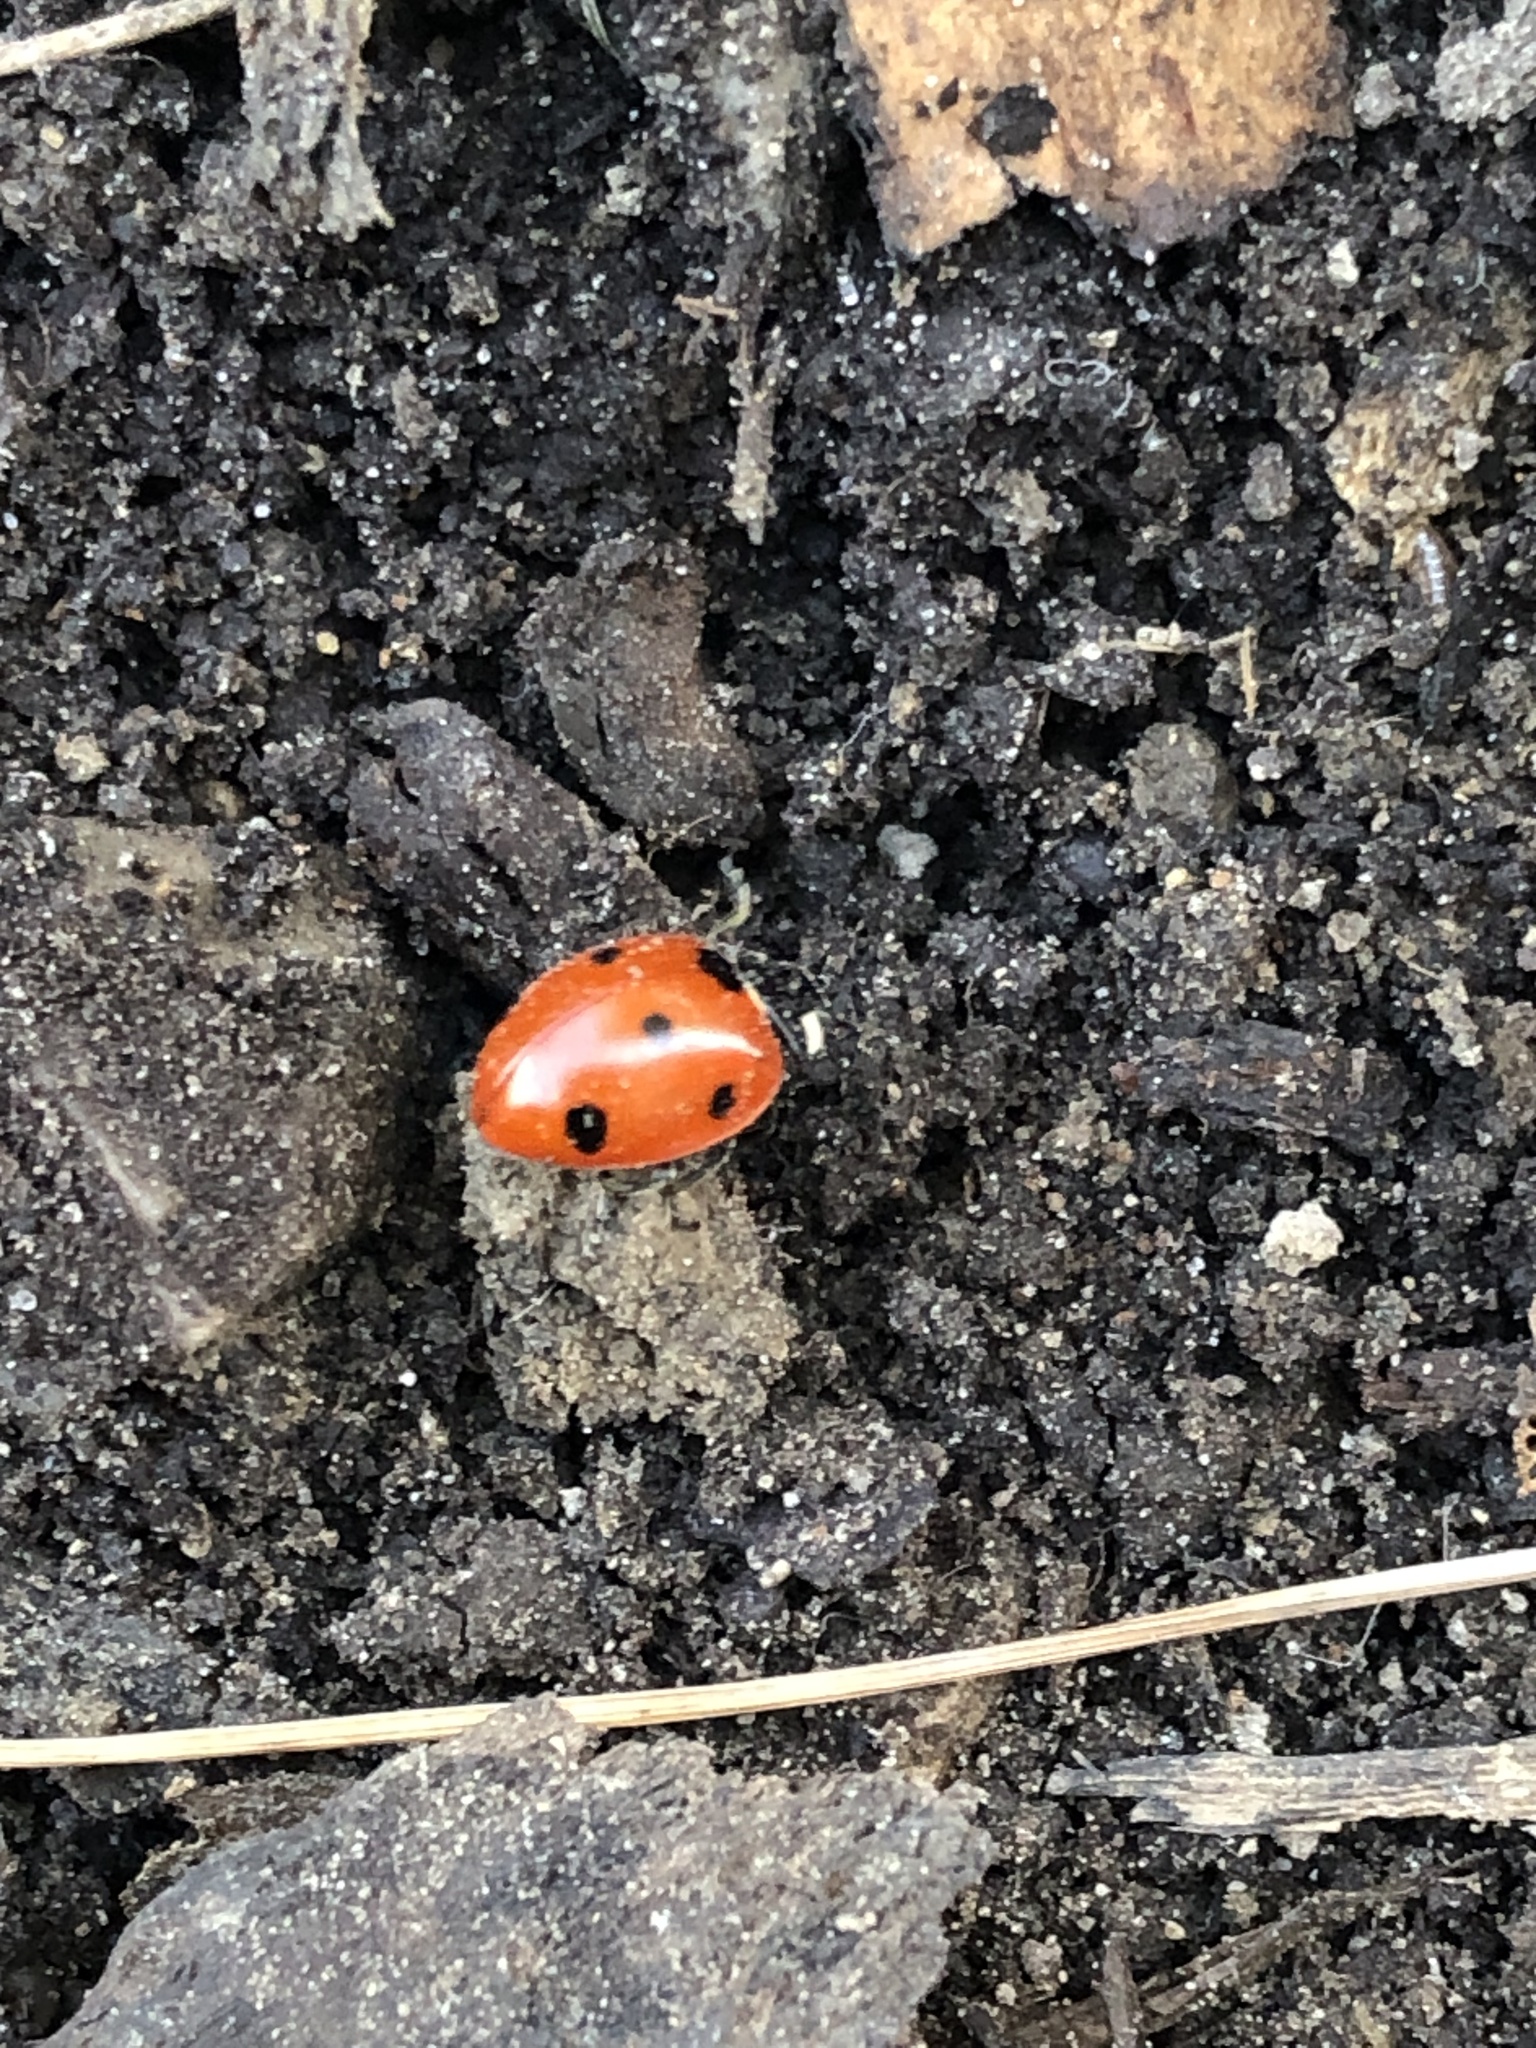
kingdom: Animalia
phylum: Arthropoda
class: Insecta
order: Coleoptera
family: Coccinellidae
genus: Coccinella
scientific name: Coccinella septempunctata
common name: Sevenspotted lady beetle
